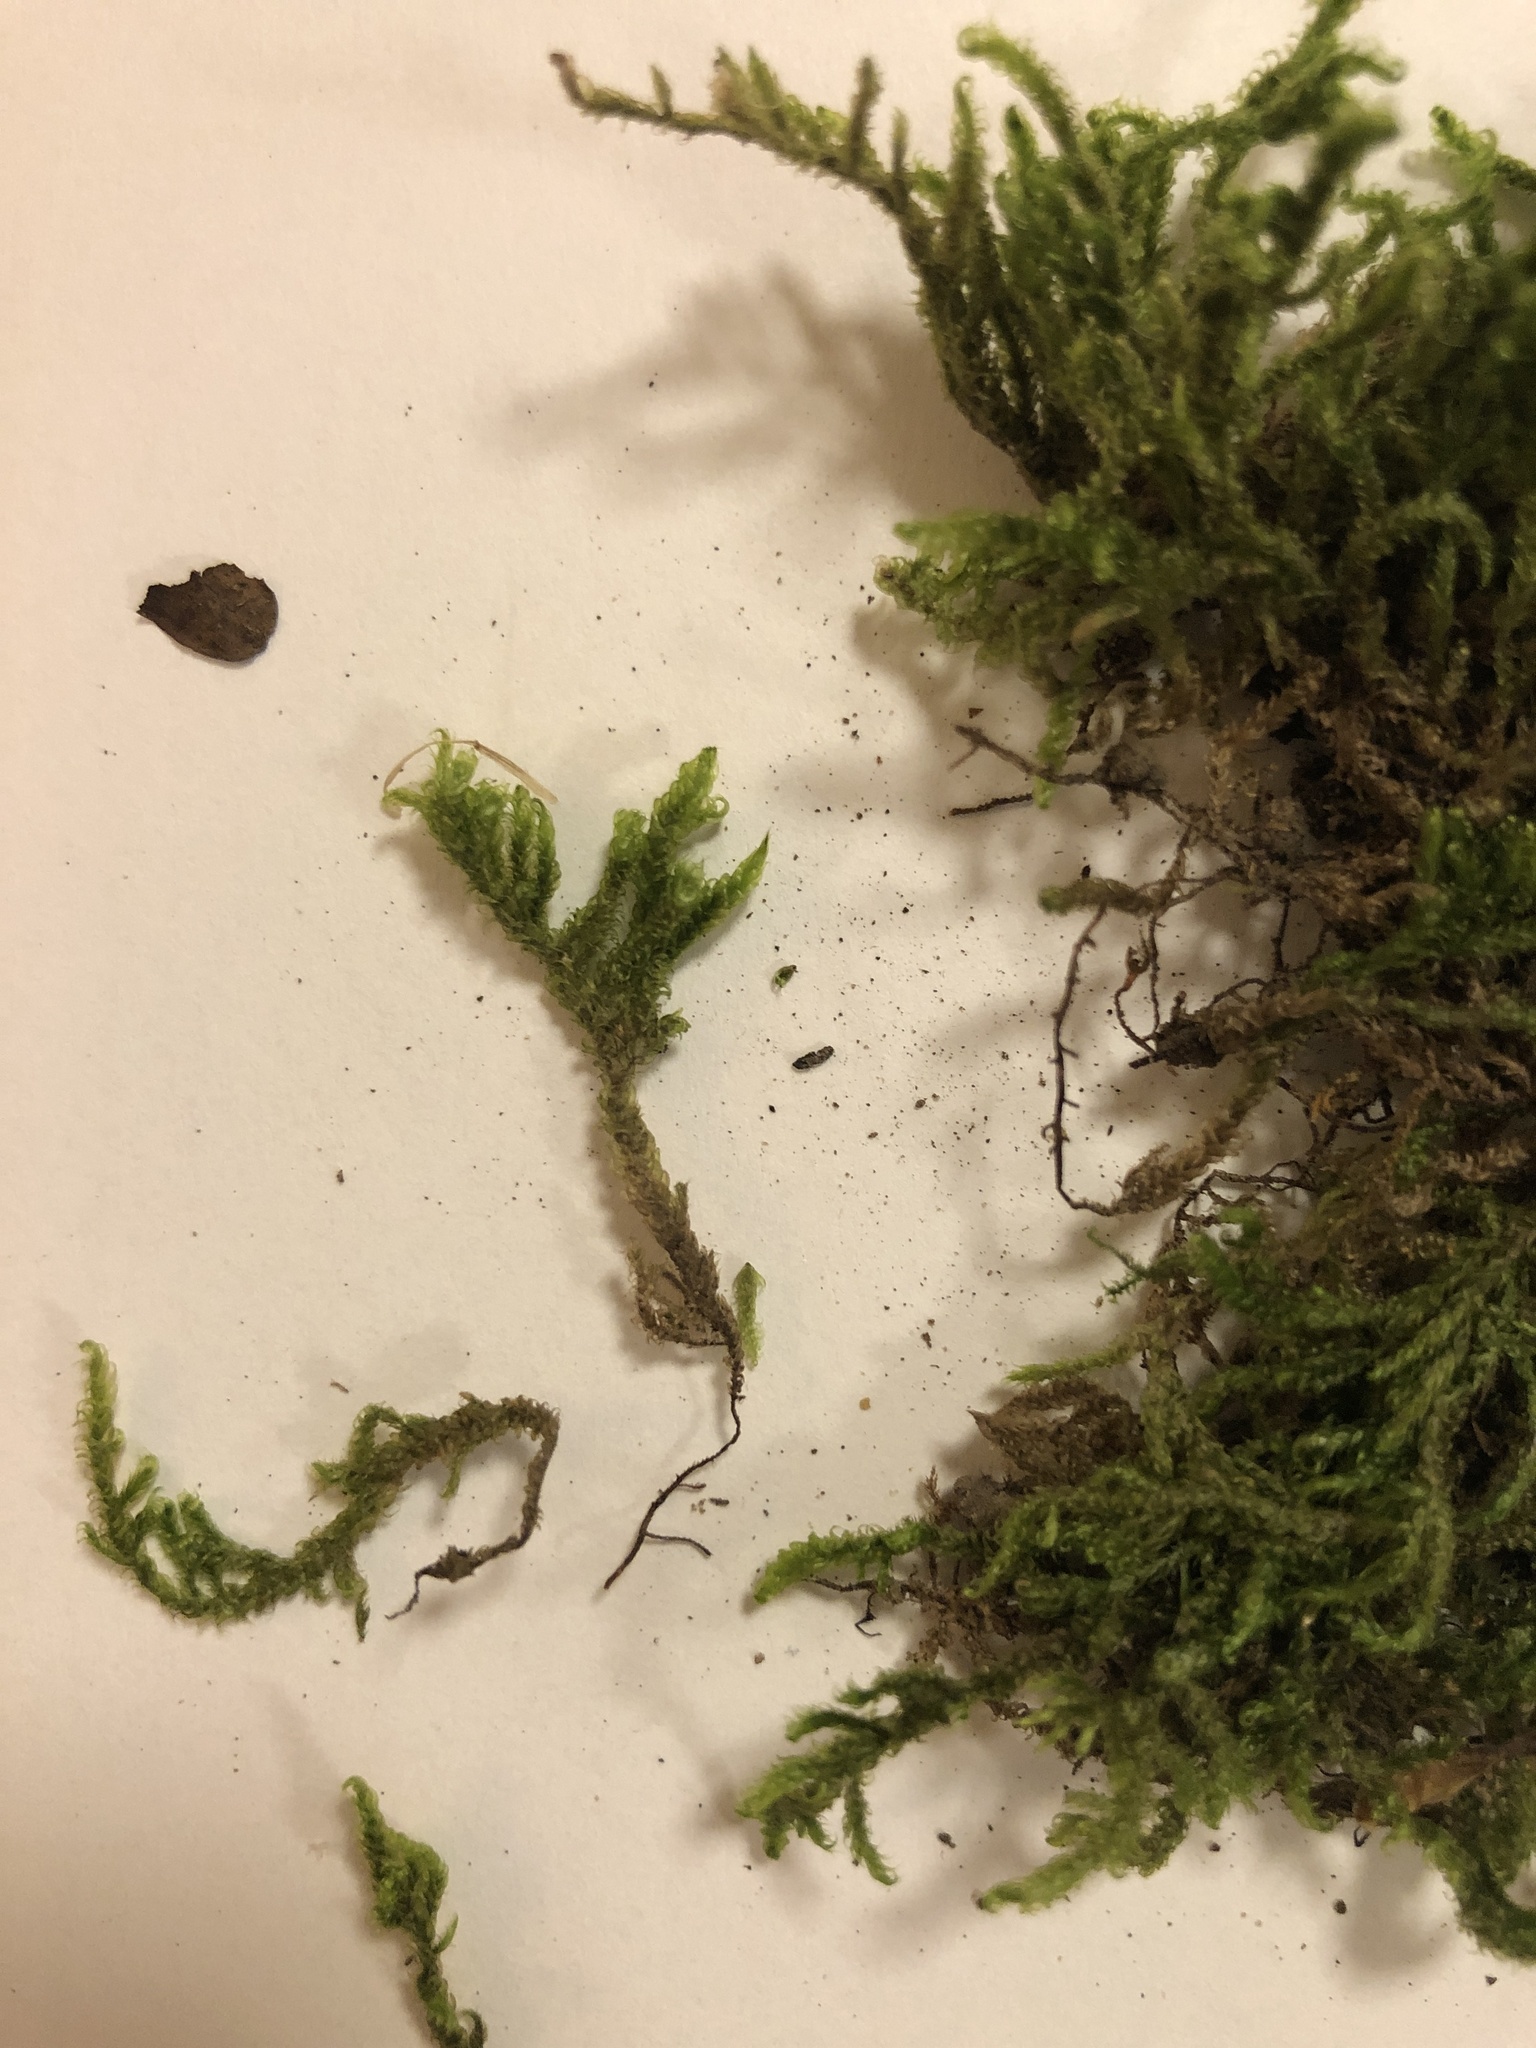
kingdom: Plantae
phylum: Bryophyta
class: Bryopsida
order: Hypnales
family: Hypnaceae
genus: Hypnum
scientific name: Hypnum cupressiforme
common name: Cypress-leaved plait-moss
